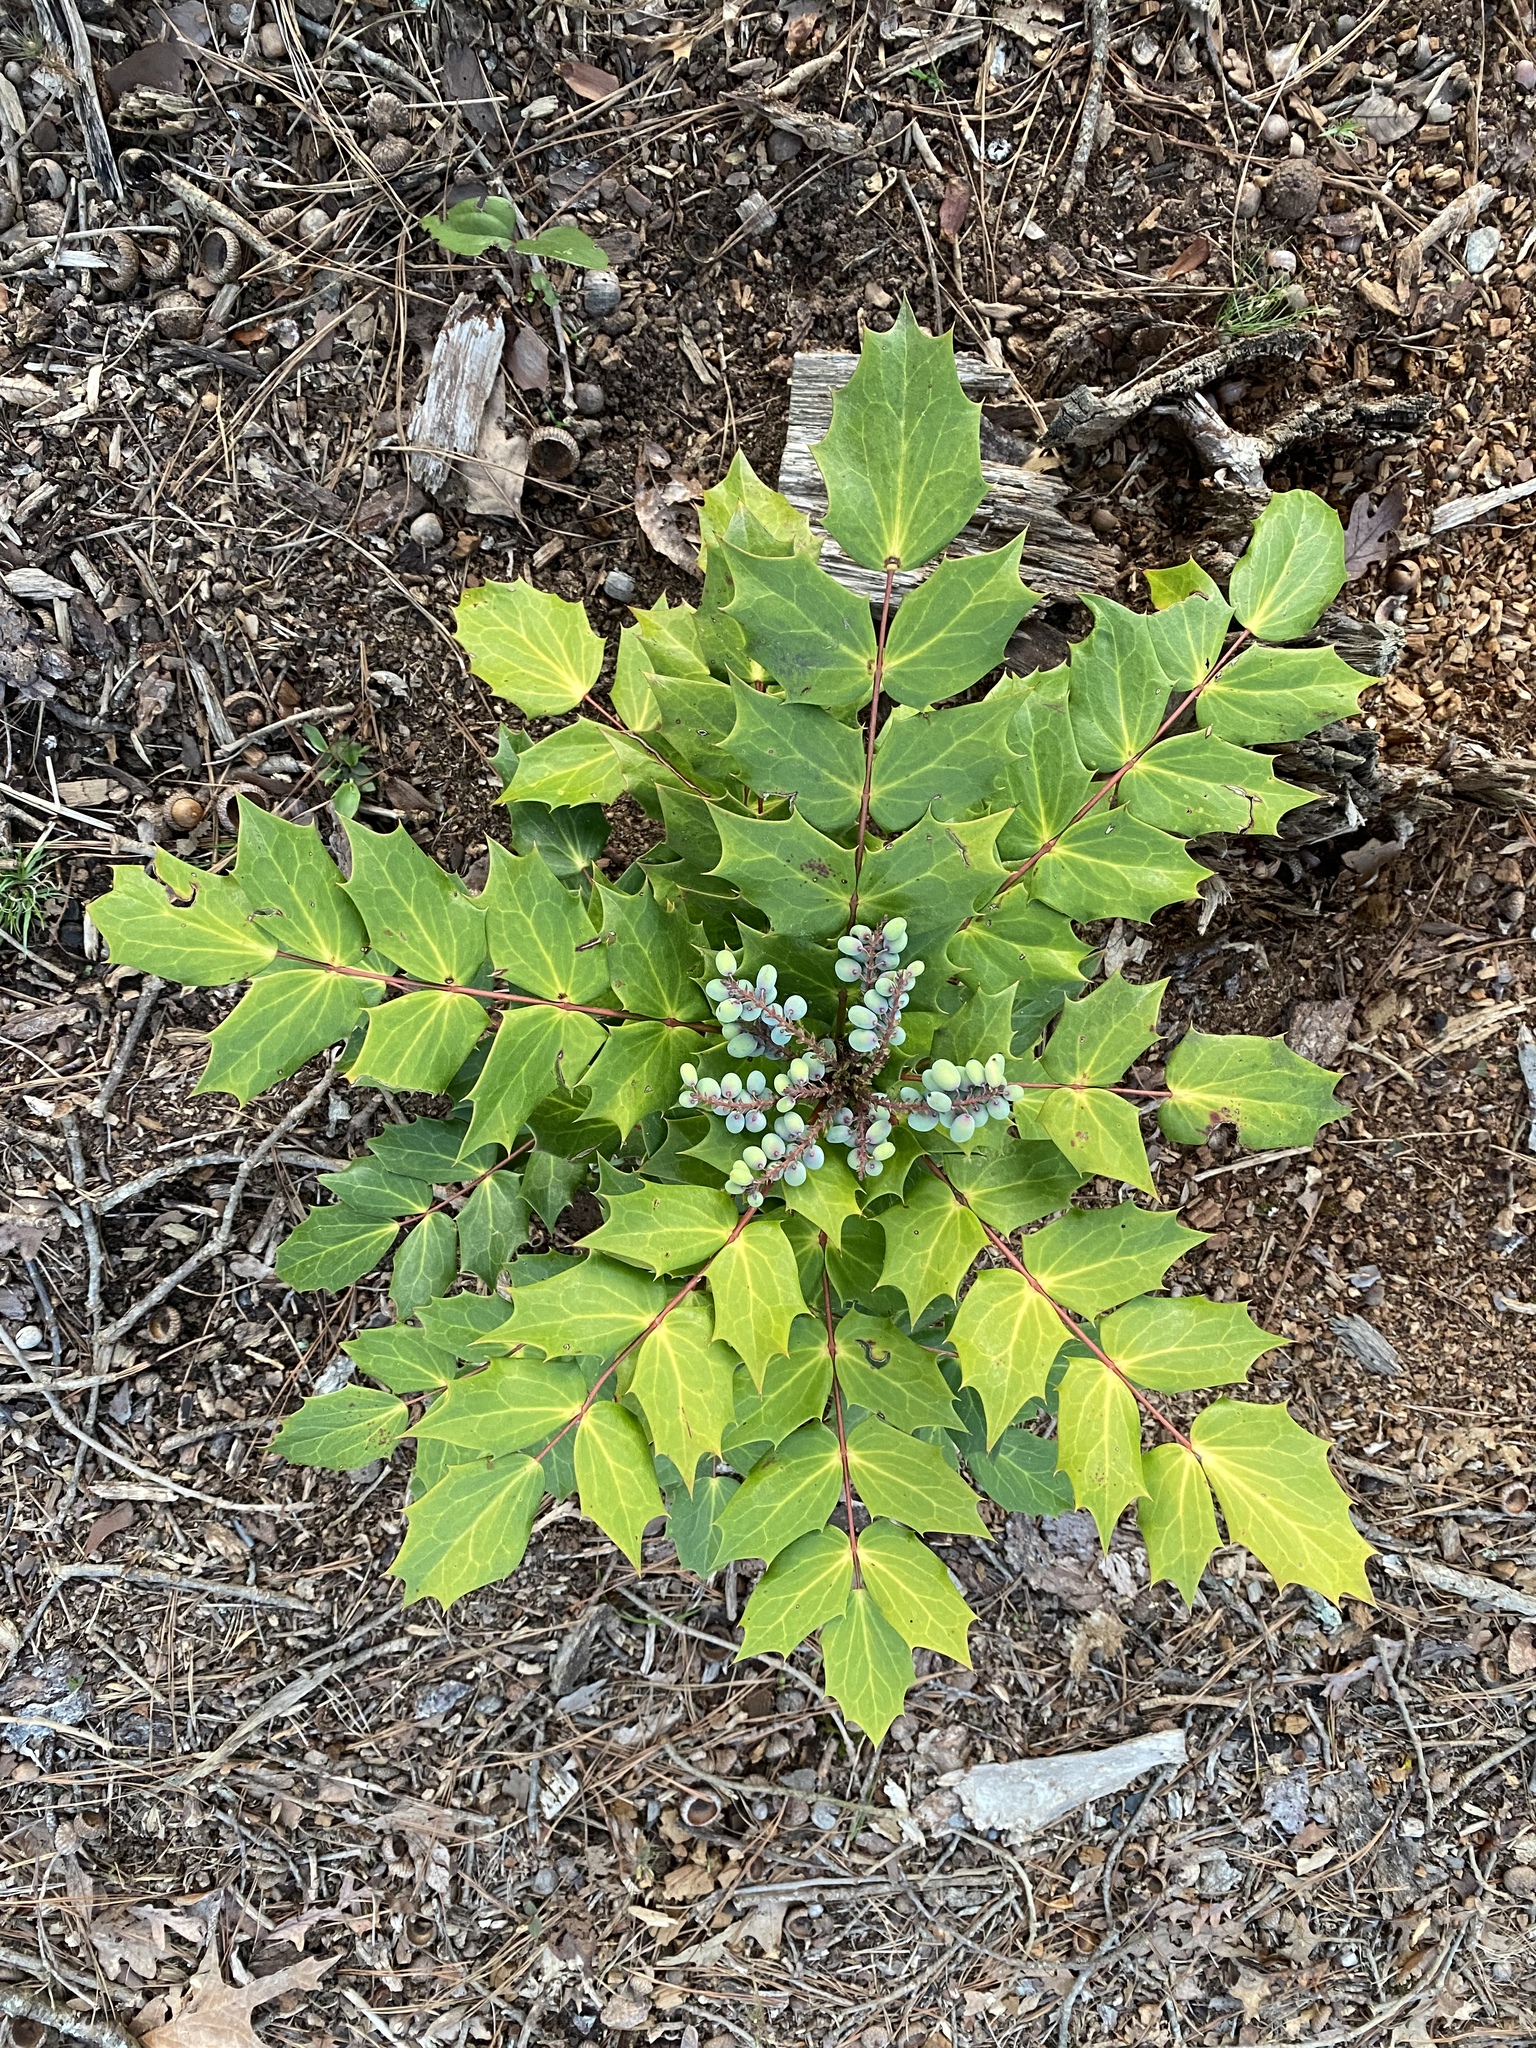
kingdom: Plantae
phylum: Tracheophyta
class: Magnoliopsida
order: Ranunculales
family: Berberidaceae
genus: Mahonia
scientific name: Mahonia bealei
